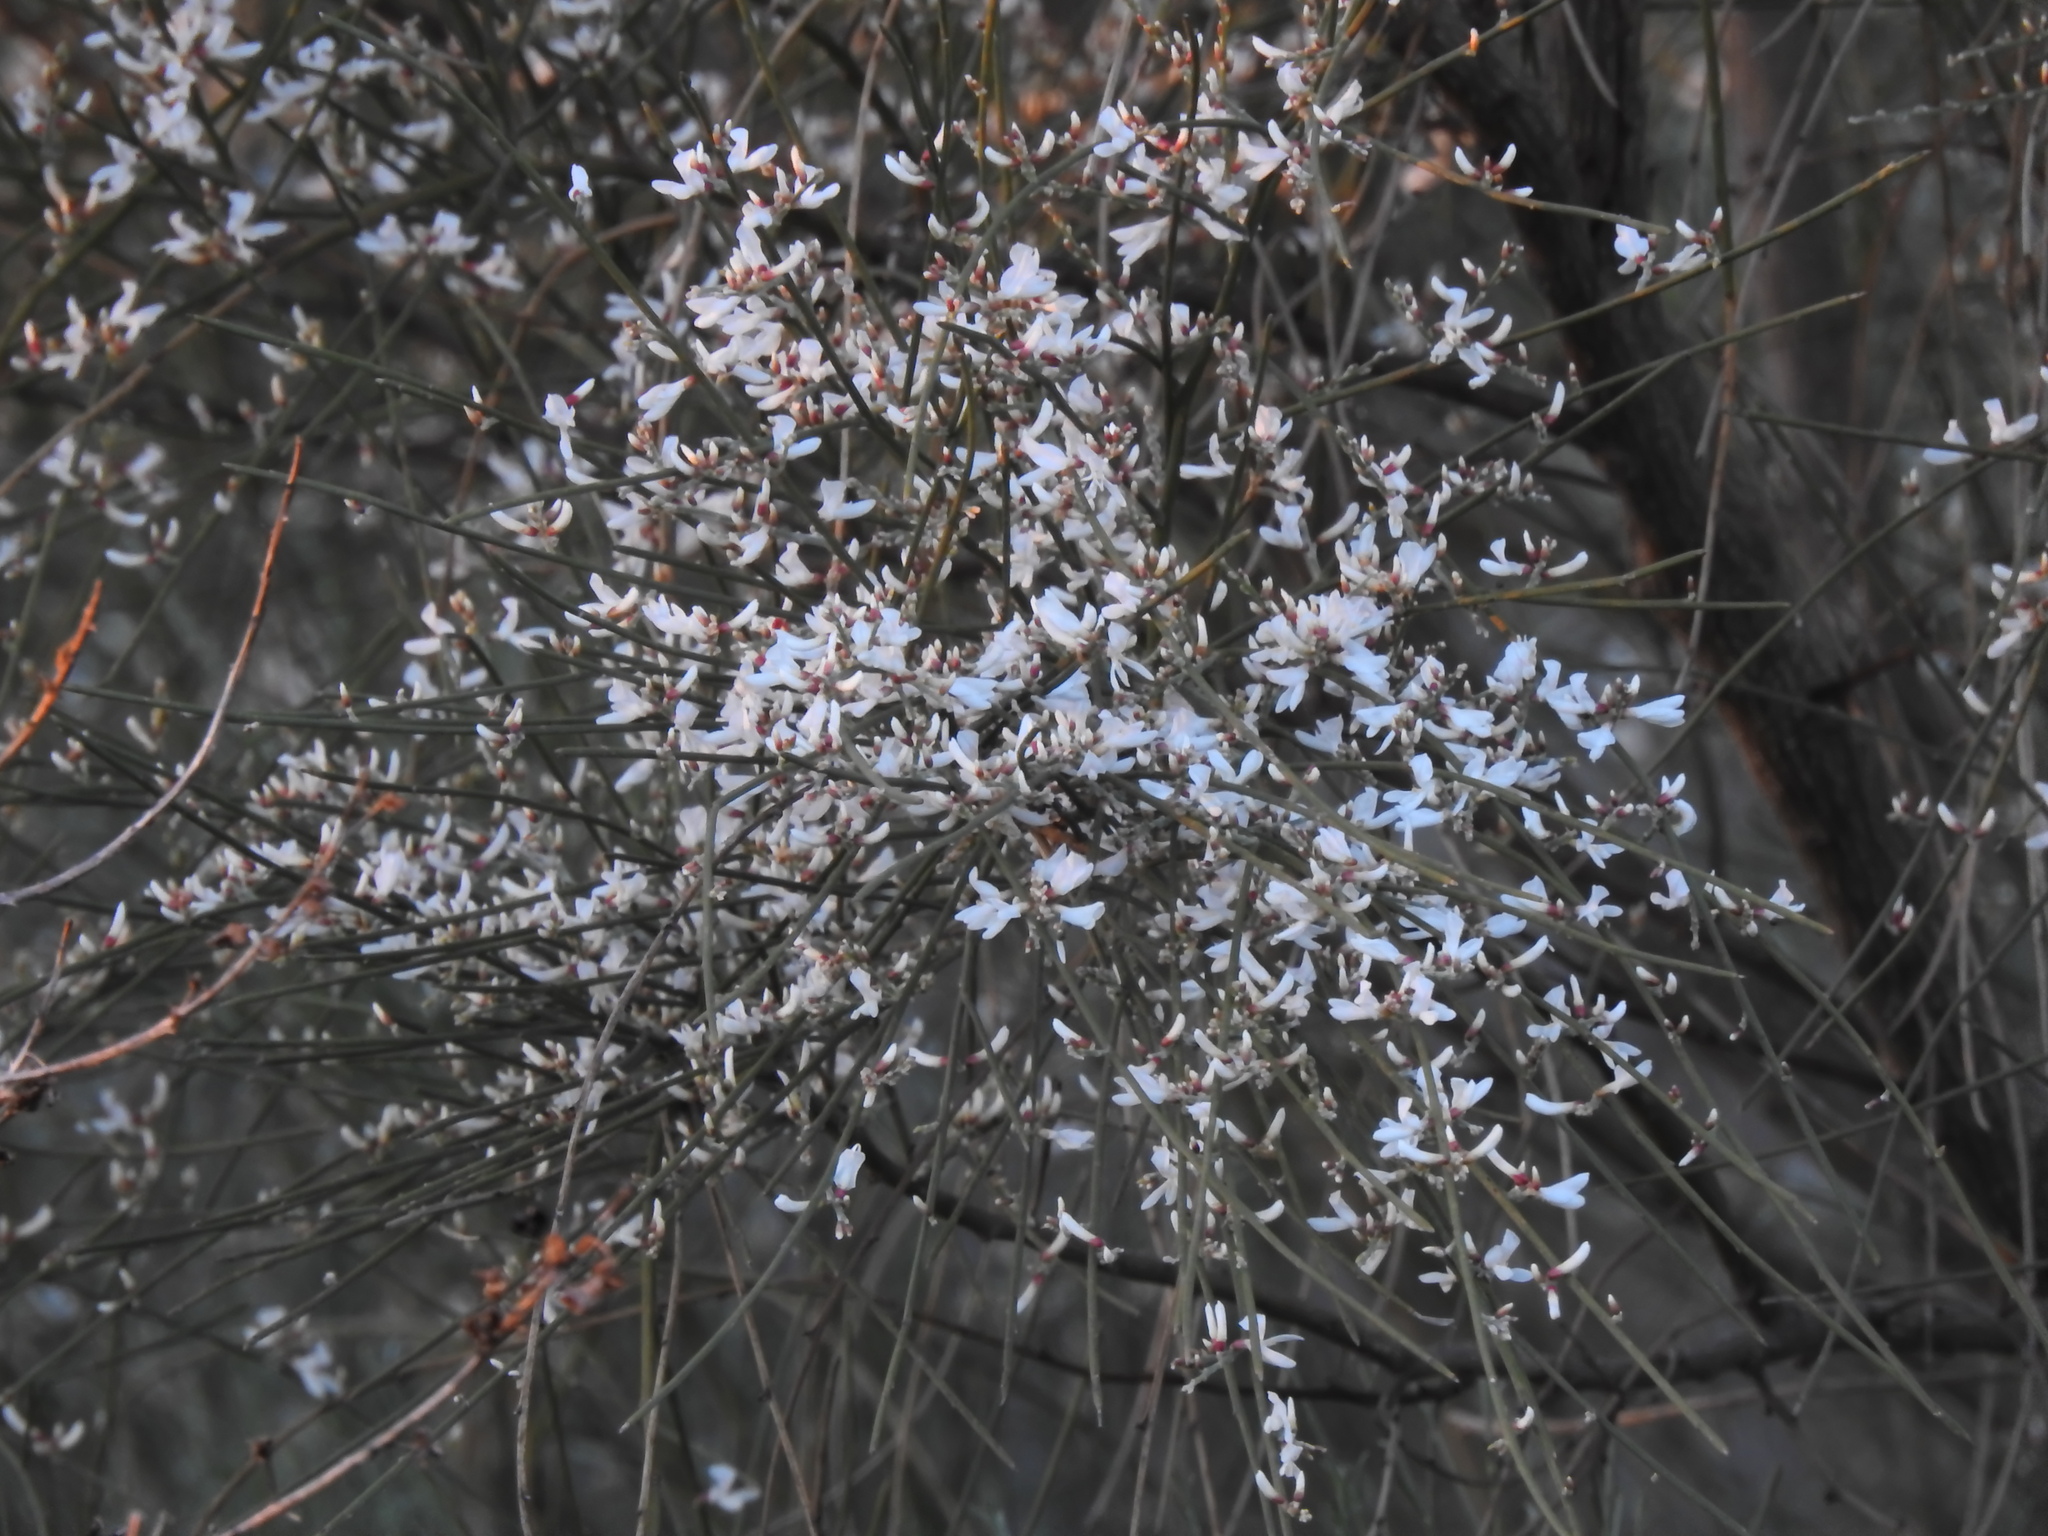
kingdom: Plantae
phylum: Tracheophyta
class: Magnoliopsida
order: Fabales
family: Fabaceae
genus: Retama
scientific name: Retama monosperma
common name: Bridal broom
